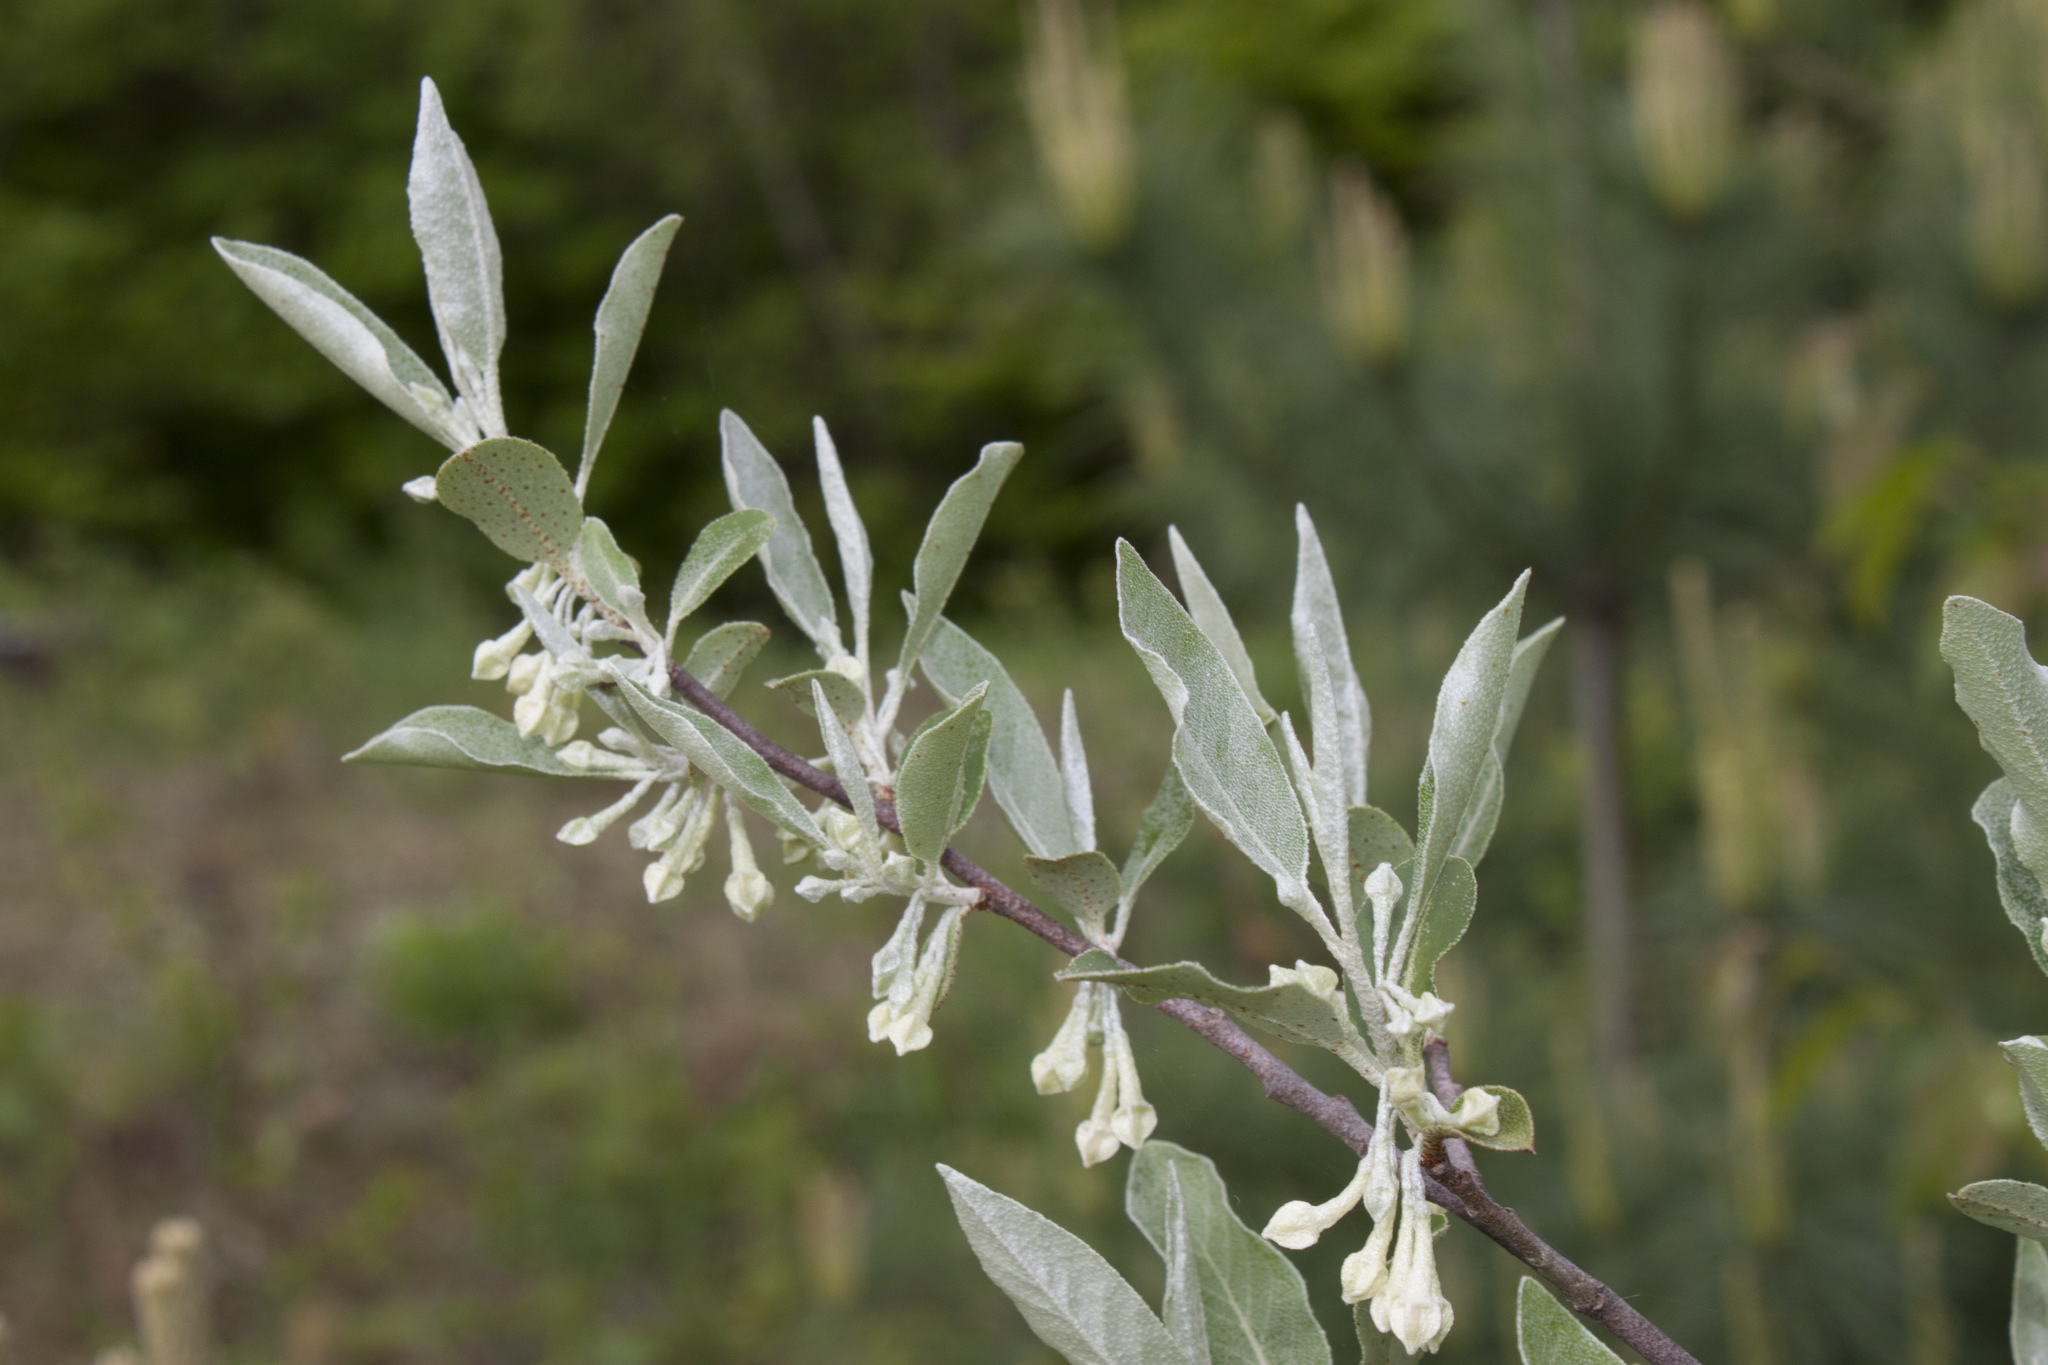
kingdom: Plantae
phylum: Tracheophyta
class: Magnoliopsida
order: Rosales
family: Elaeagnaceae
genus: Elaeagnus
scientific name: Elaeagnus umbellata
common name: Autumn olive
